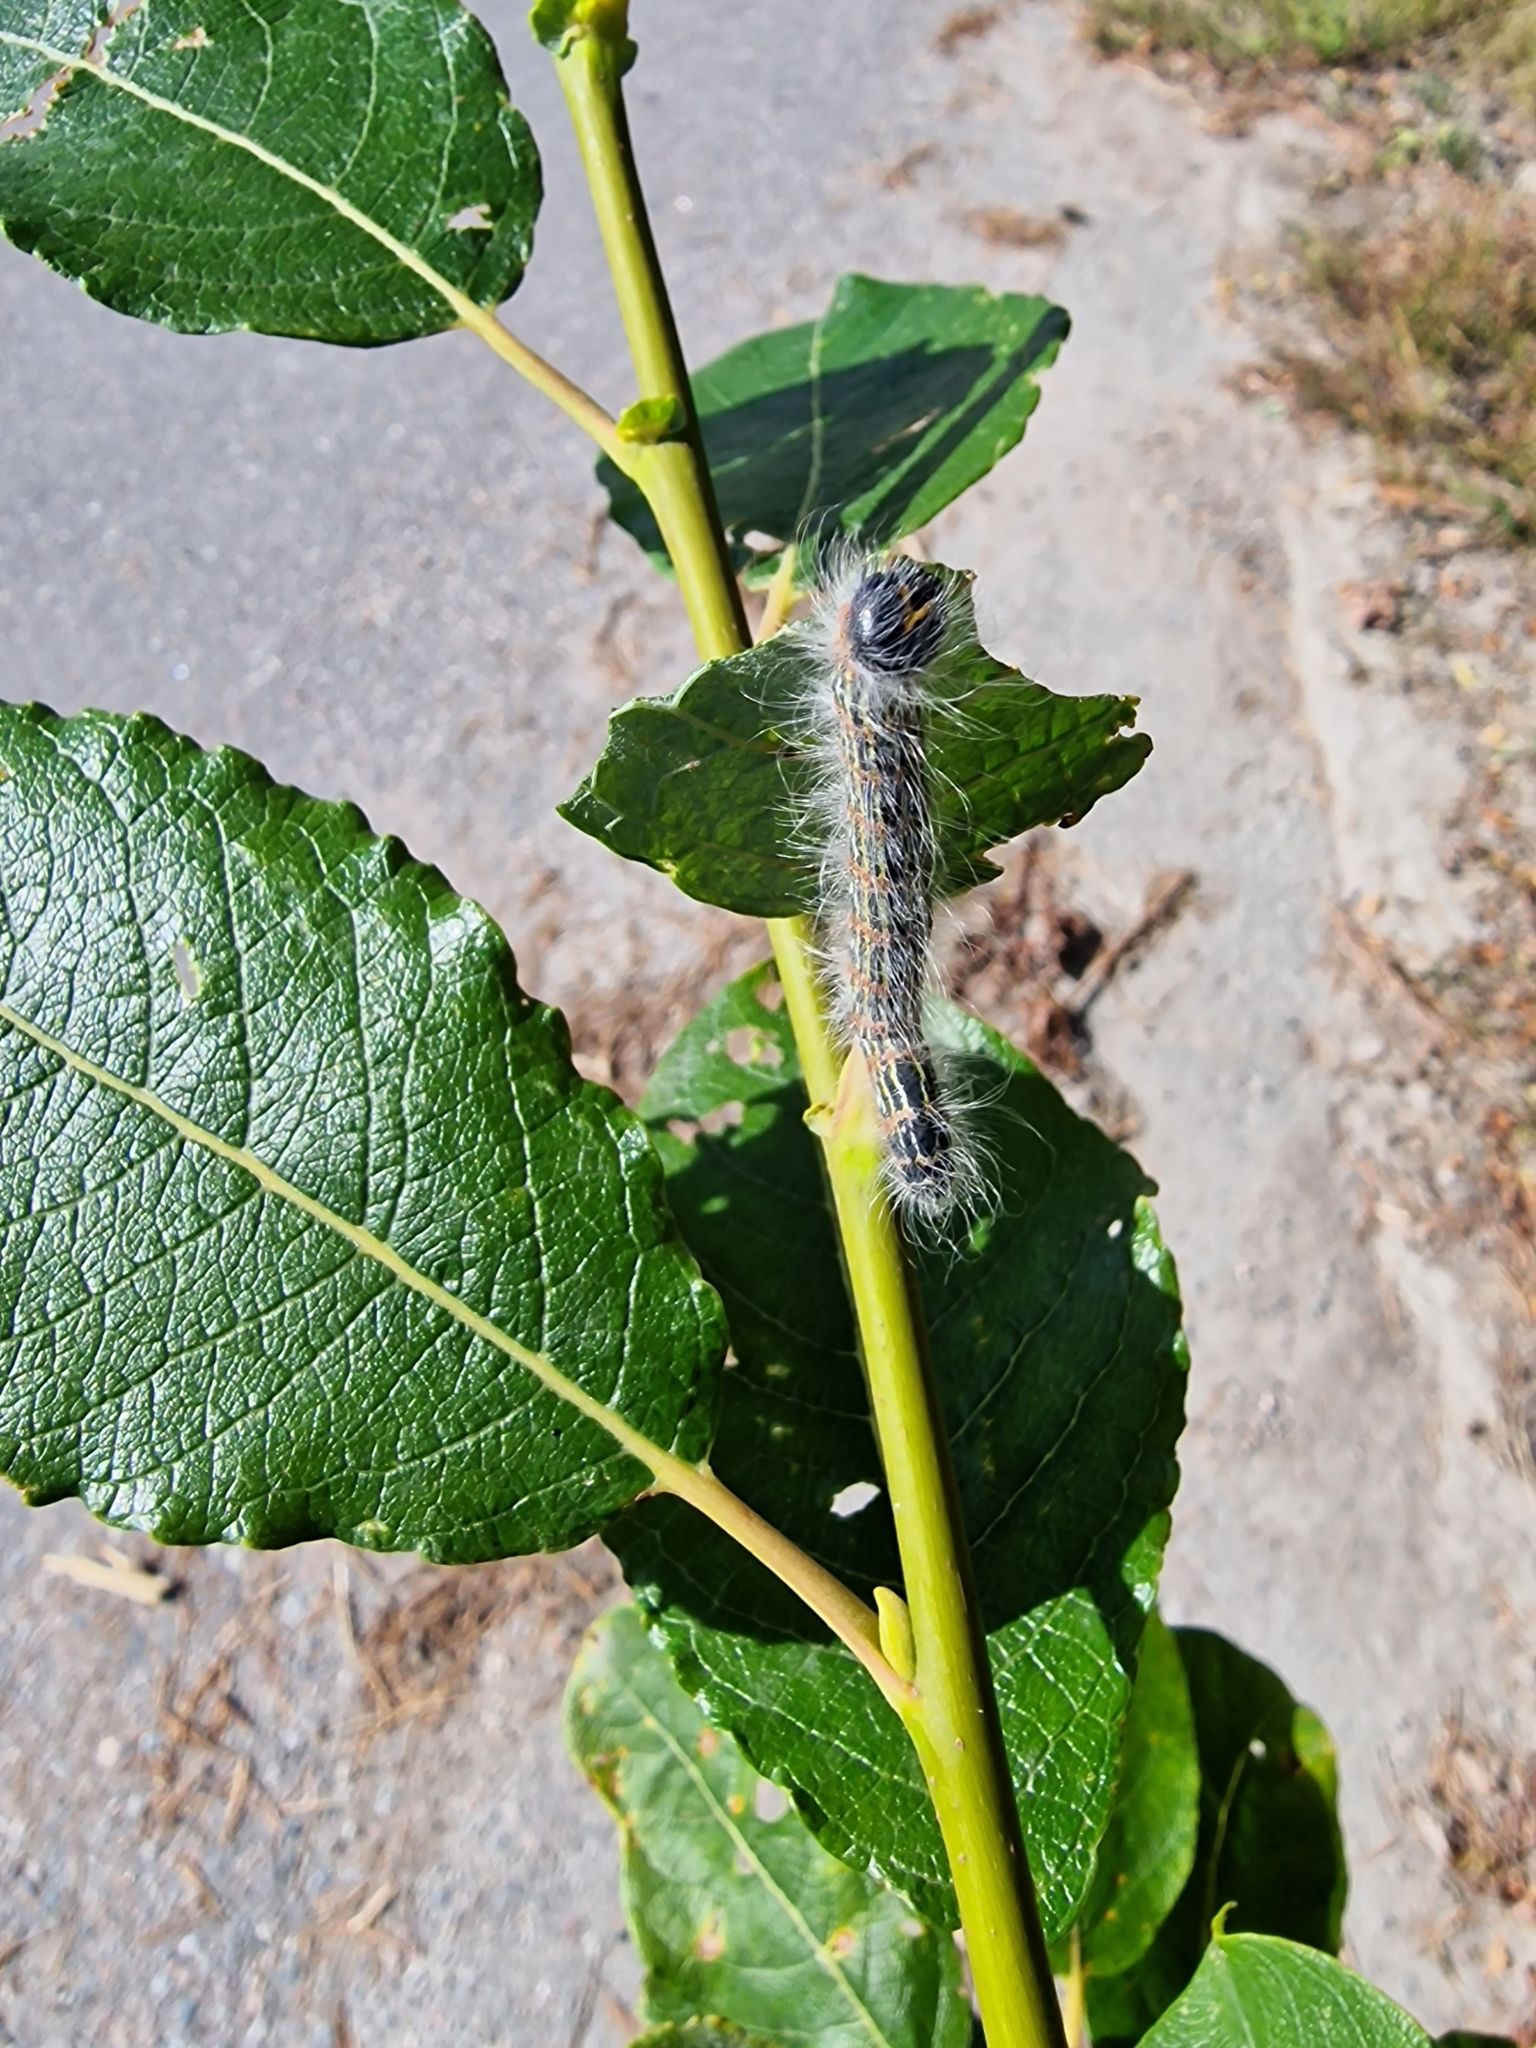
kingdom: Animalia
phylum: Arthropoda
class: Insecta
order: Lepidoptera
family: Notodontidae
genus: Phalera
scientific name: Phalera bucephala
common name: Buff-tip
